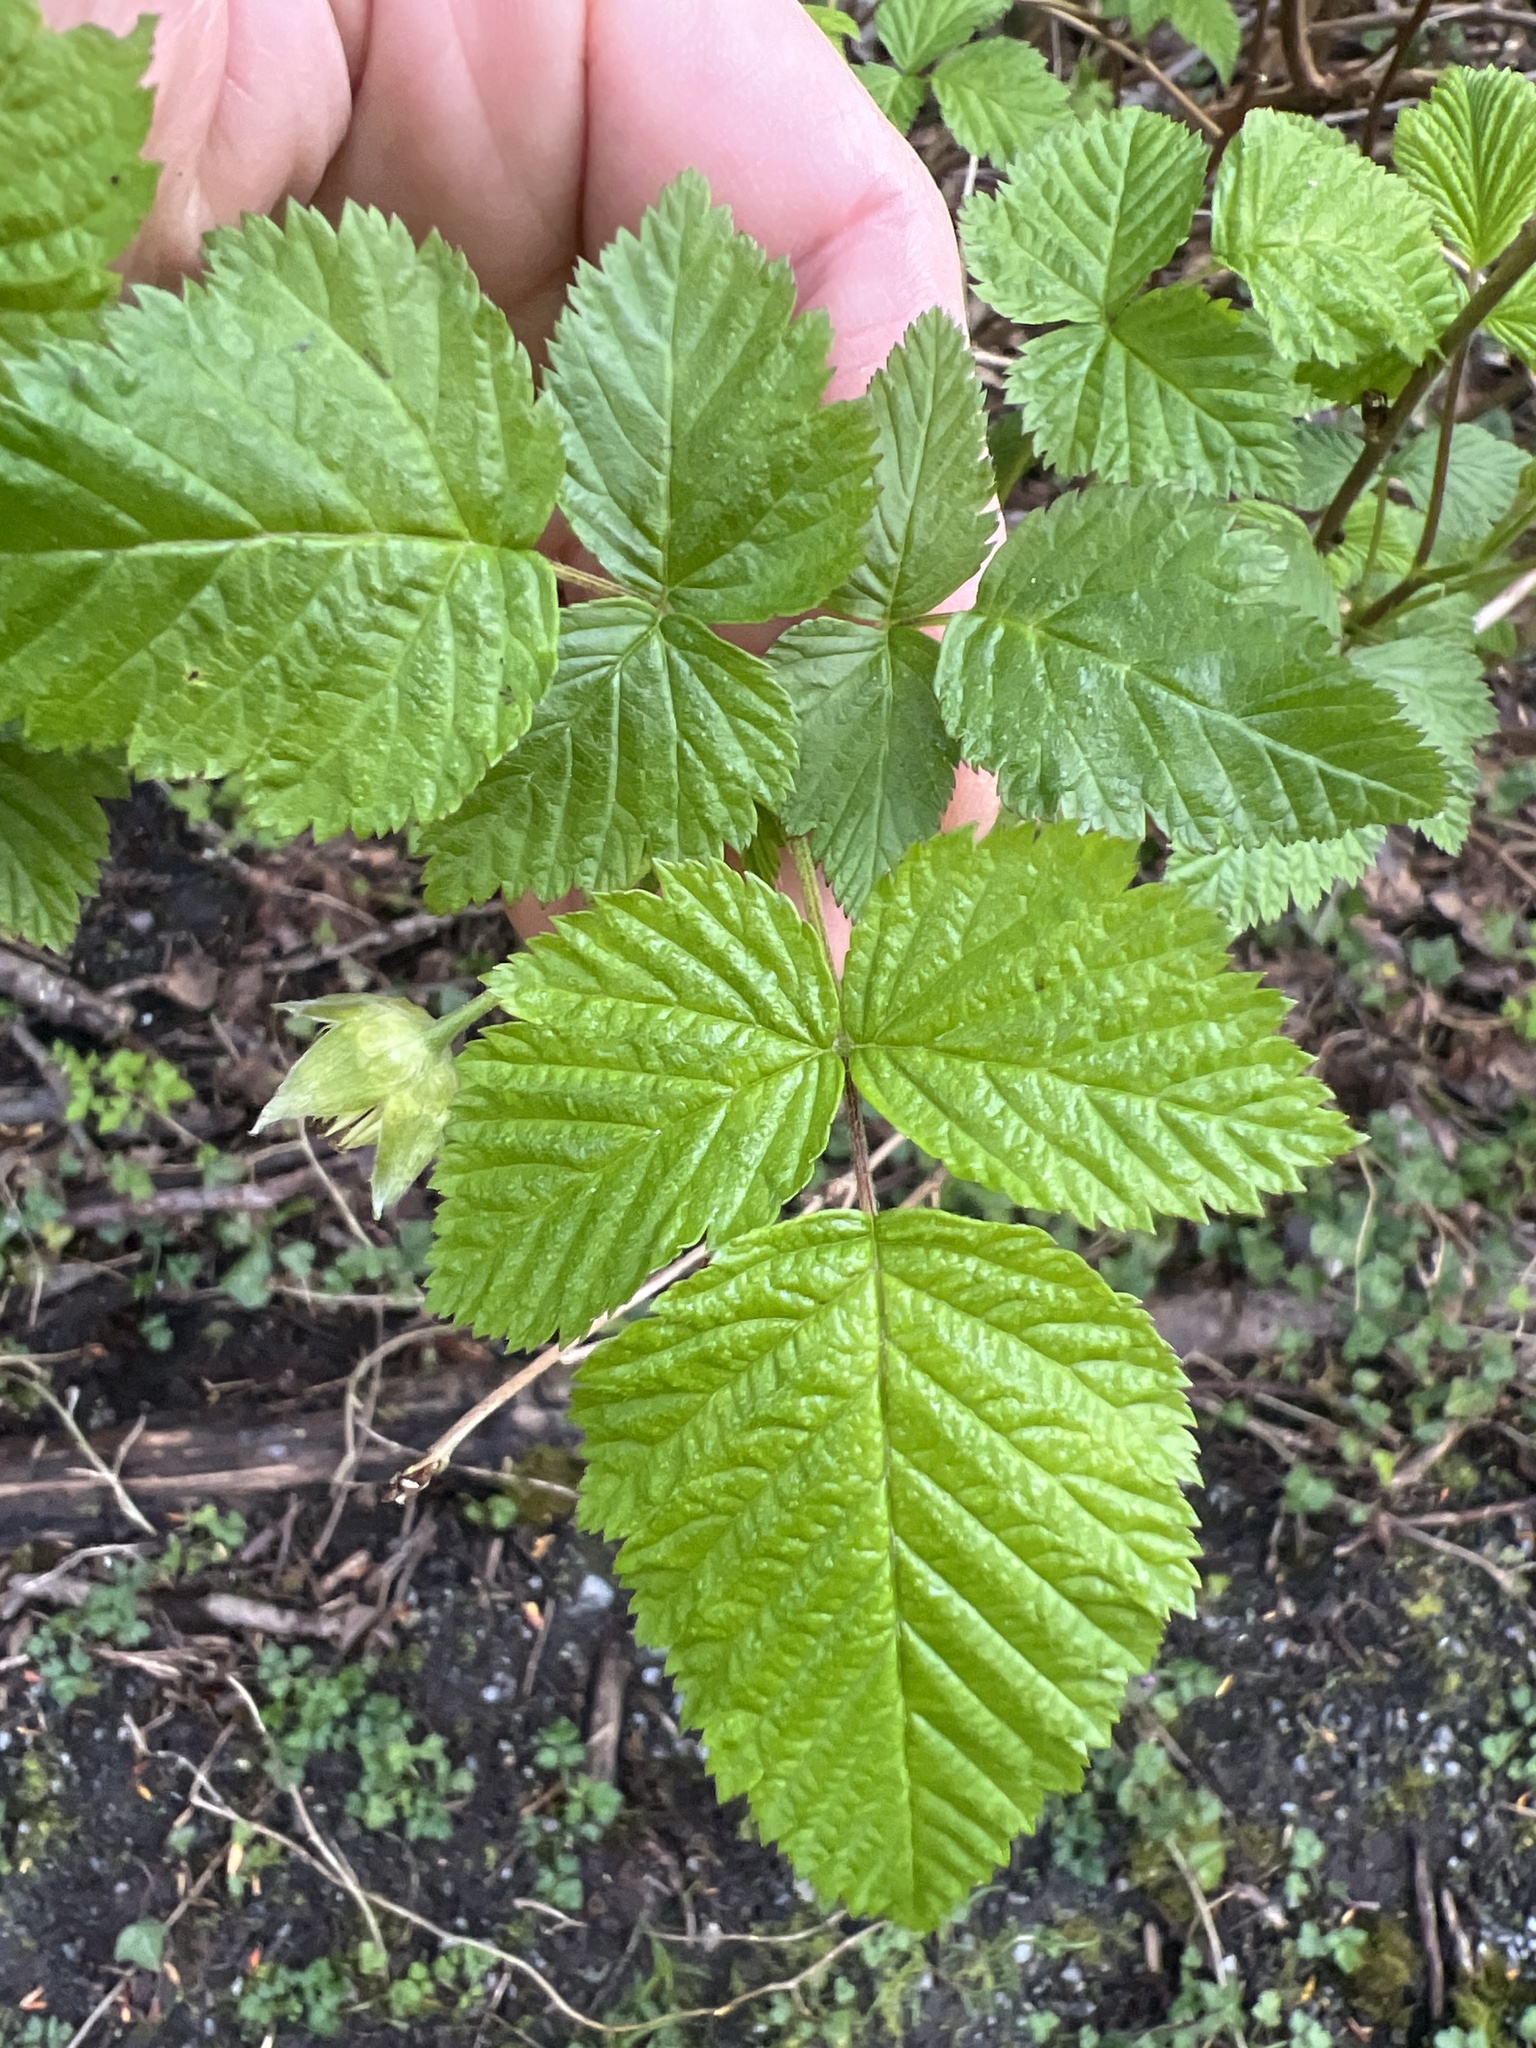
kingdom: Plantae
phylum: Tracheophyta
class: Magnoliopsida
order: Rosales
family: Rosaceae
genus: Rubus
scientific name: Rubus spectabilis
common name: Salmonberry
